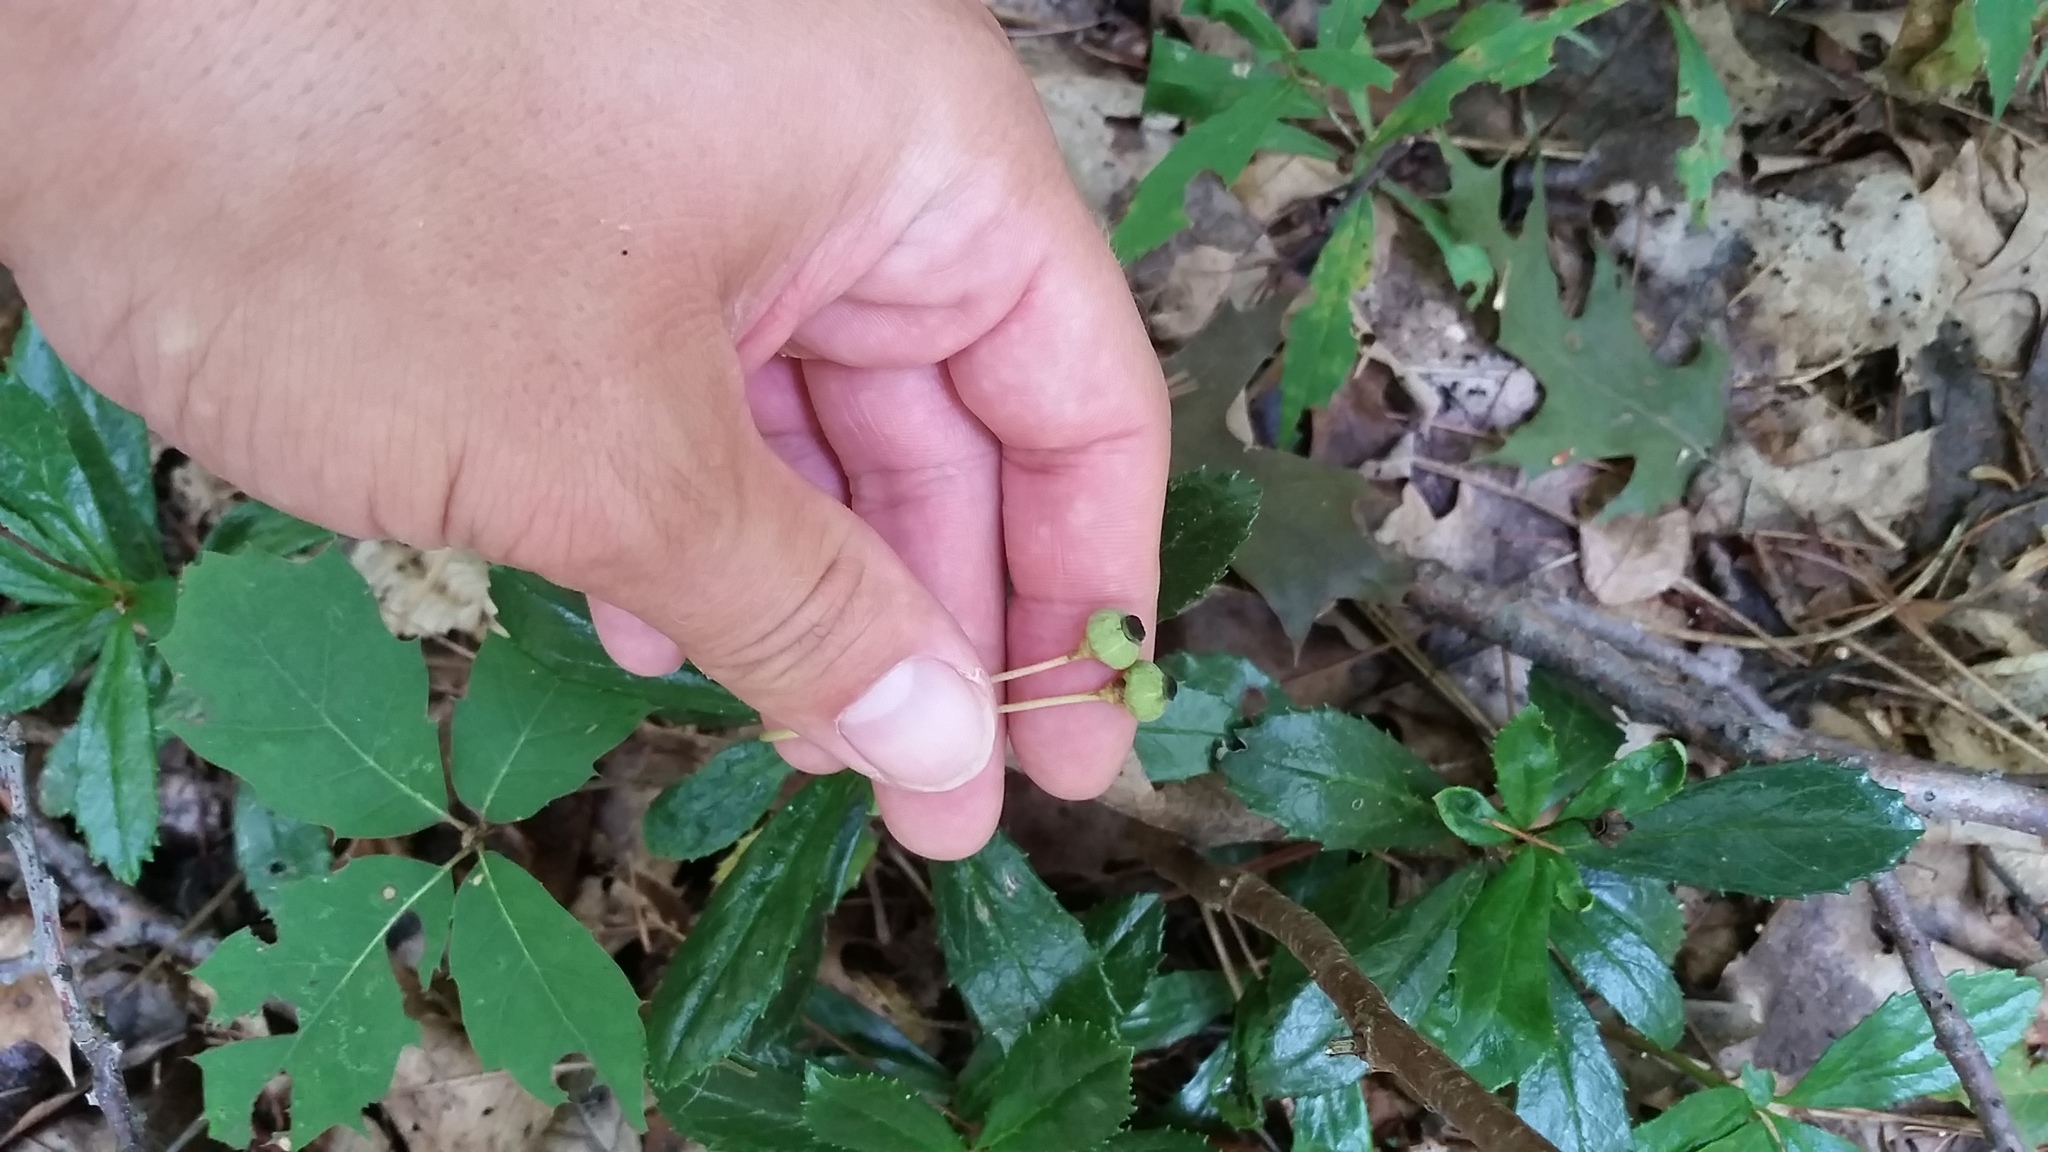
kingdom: Plantae
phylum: Tracheophyta
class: Magnoliopsida
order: Ericales
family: Ericaceae
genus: Chimaphila
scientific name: Chimaphila umbellata
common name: Pipsissewa
